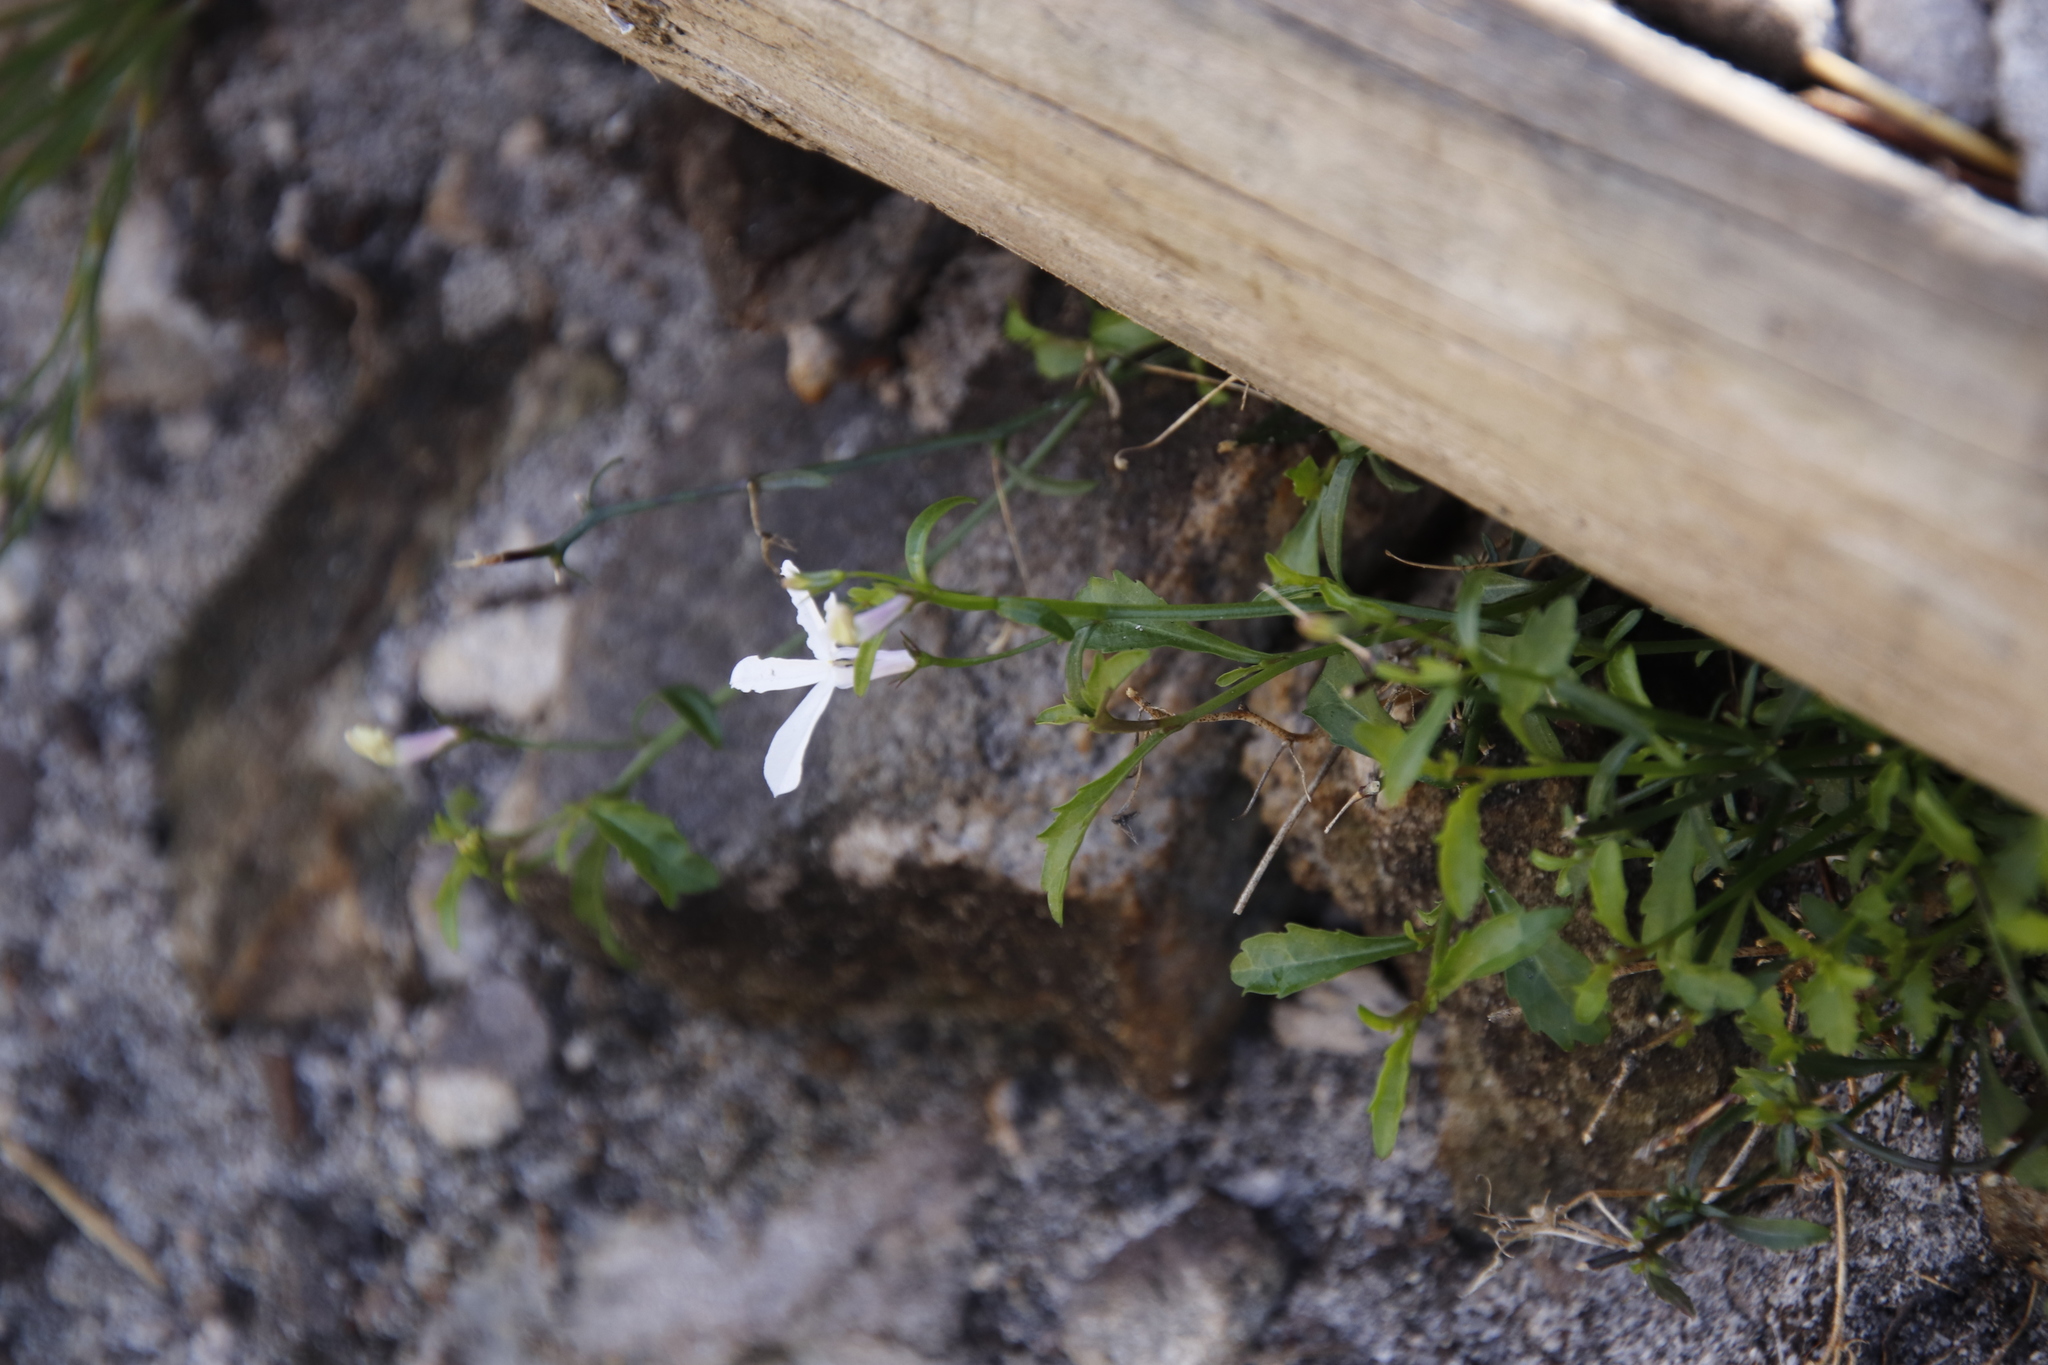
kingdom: Plantae
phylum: Tracheophyta
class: Magnoliopsida
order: Asterales
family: Campanulaceae
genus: Lobelia
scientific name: Lobelia pubescens
